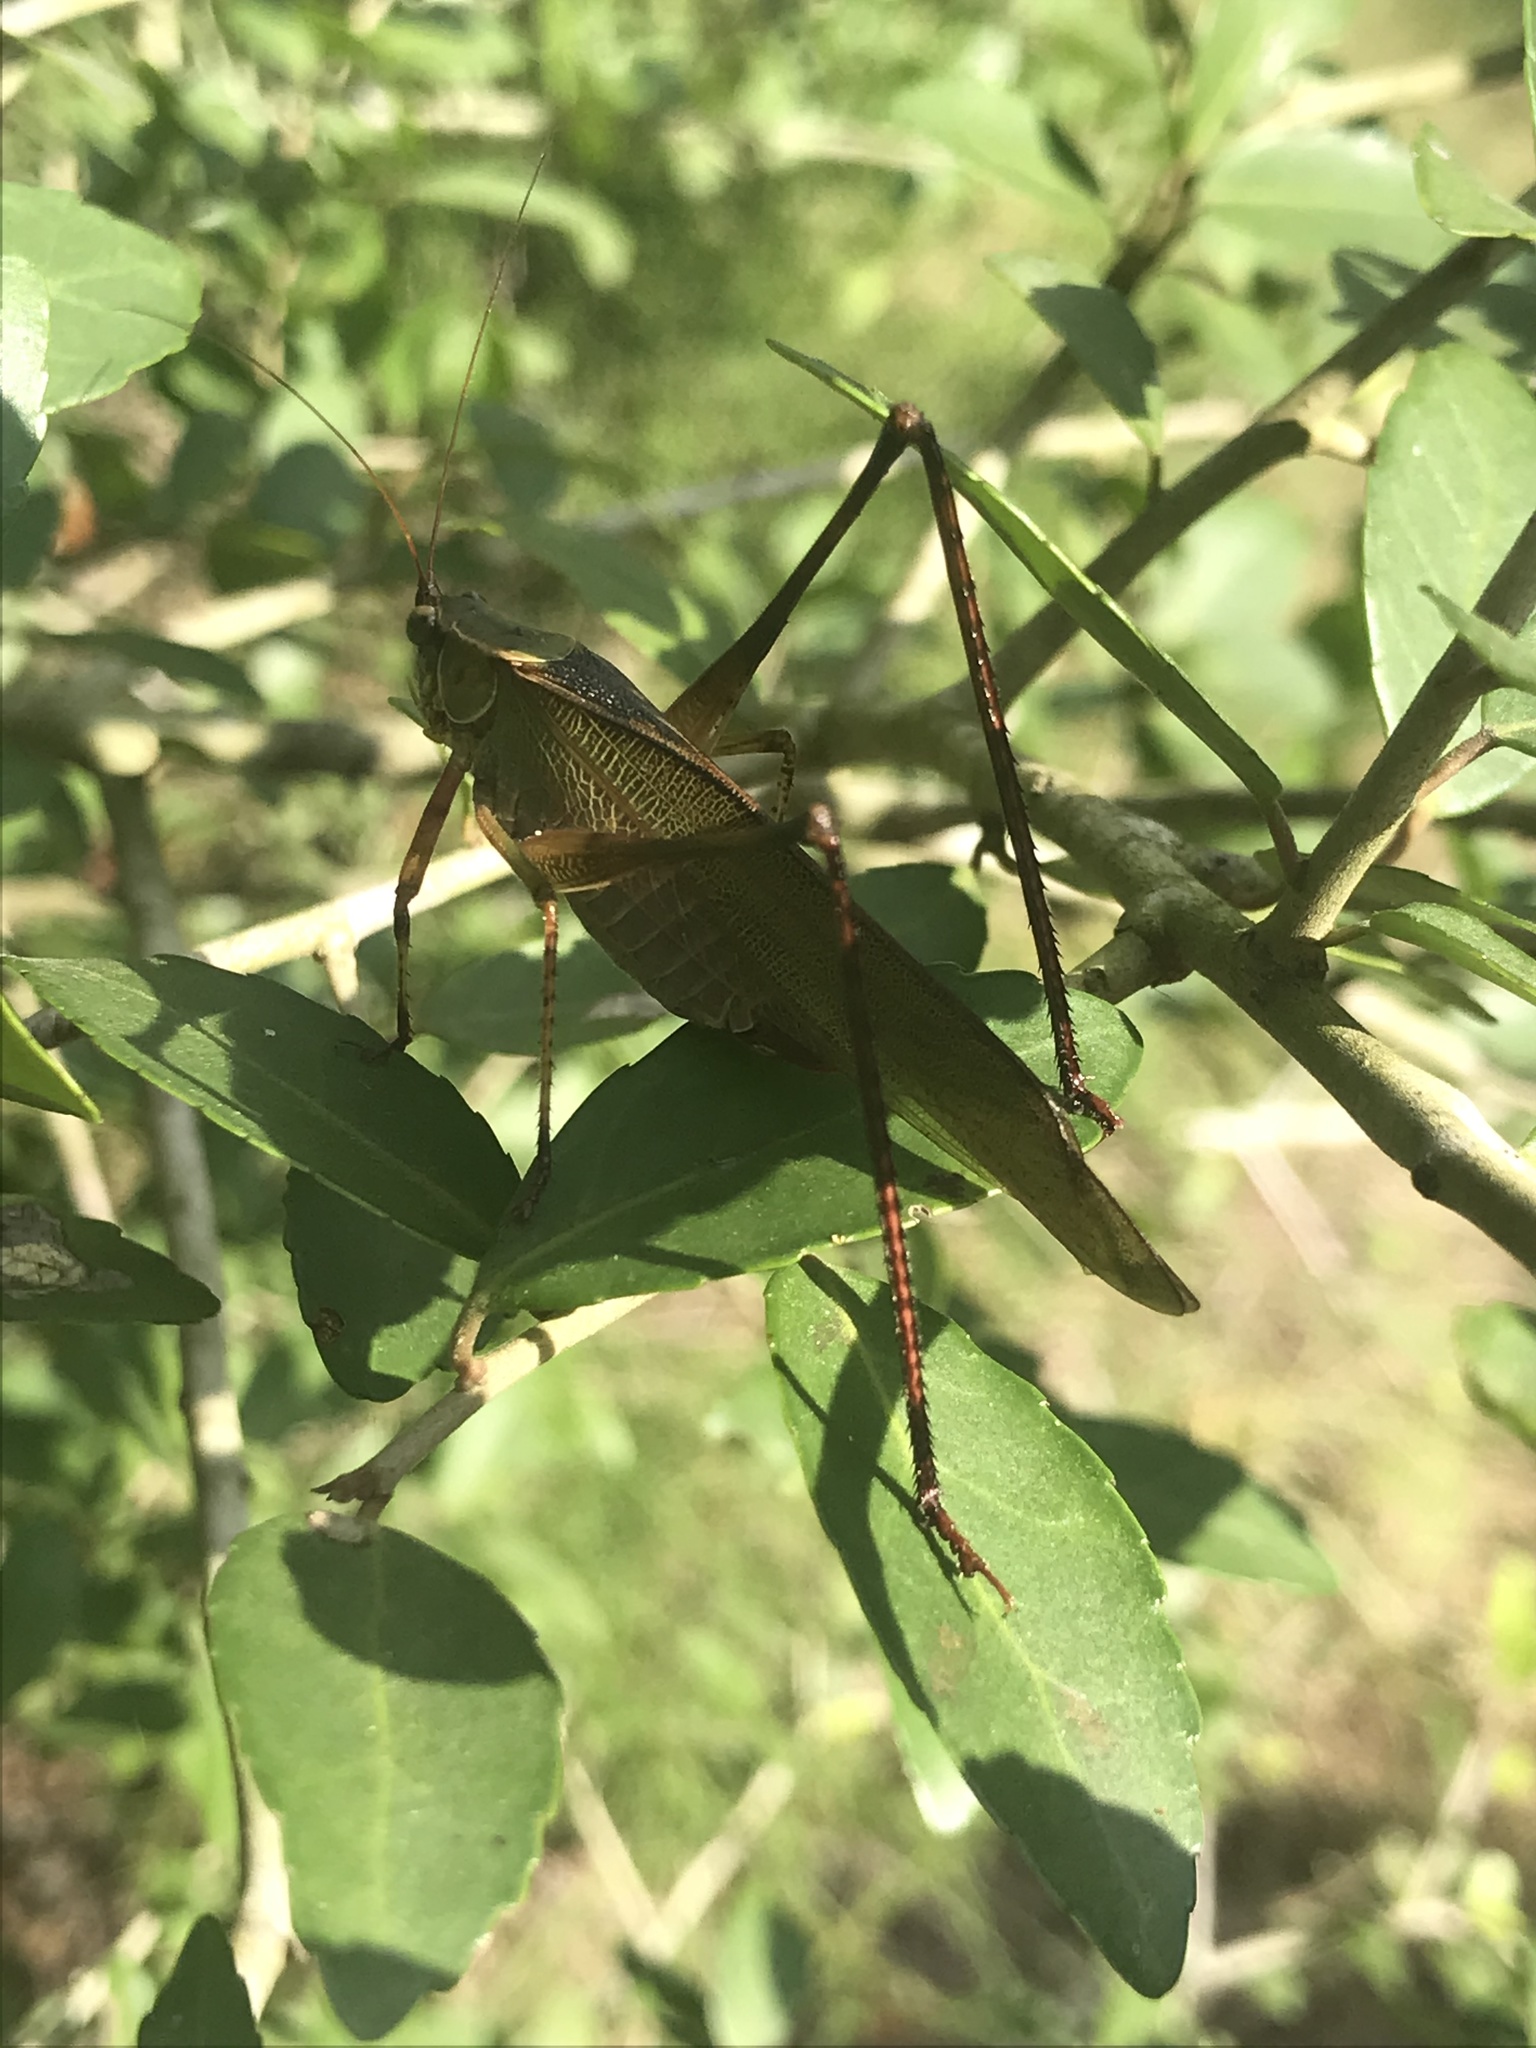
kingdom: Animalia
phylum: Arthropoda
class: Insecta
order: Orthoptera
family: Tettigoniidae
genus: Scudderia
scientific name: Scudderia furcata
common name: Fork-tailed bush katydid
